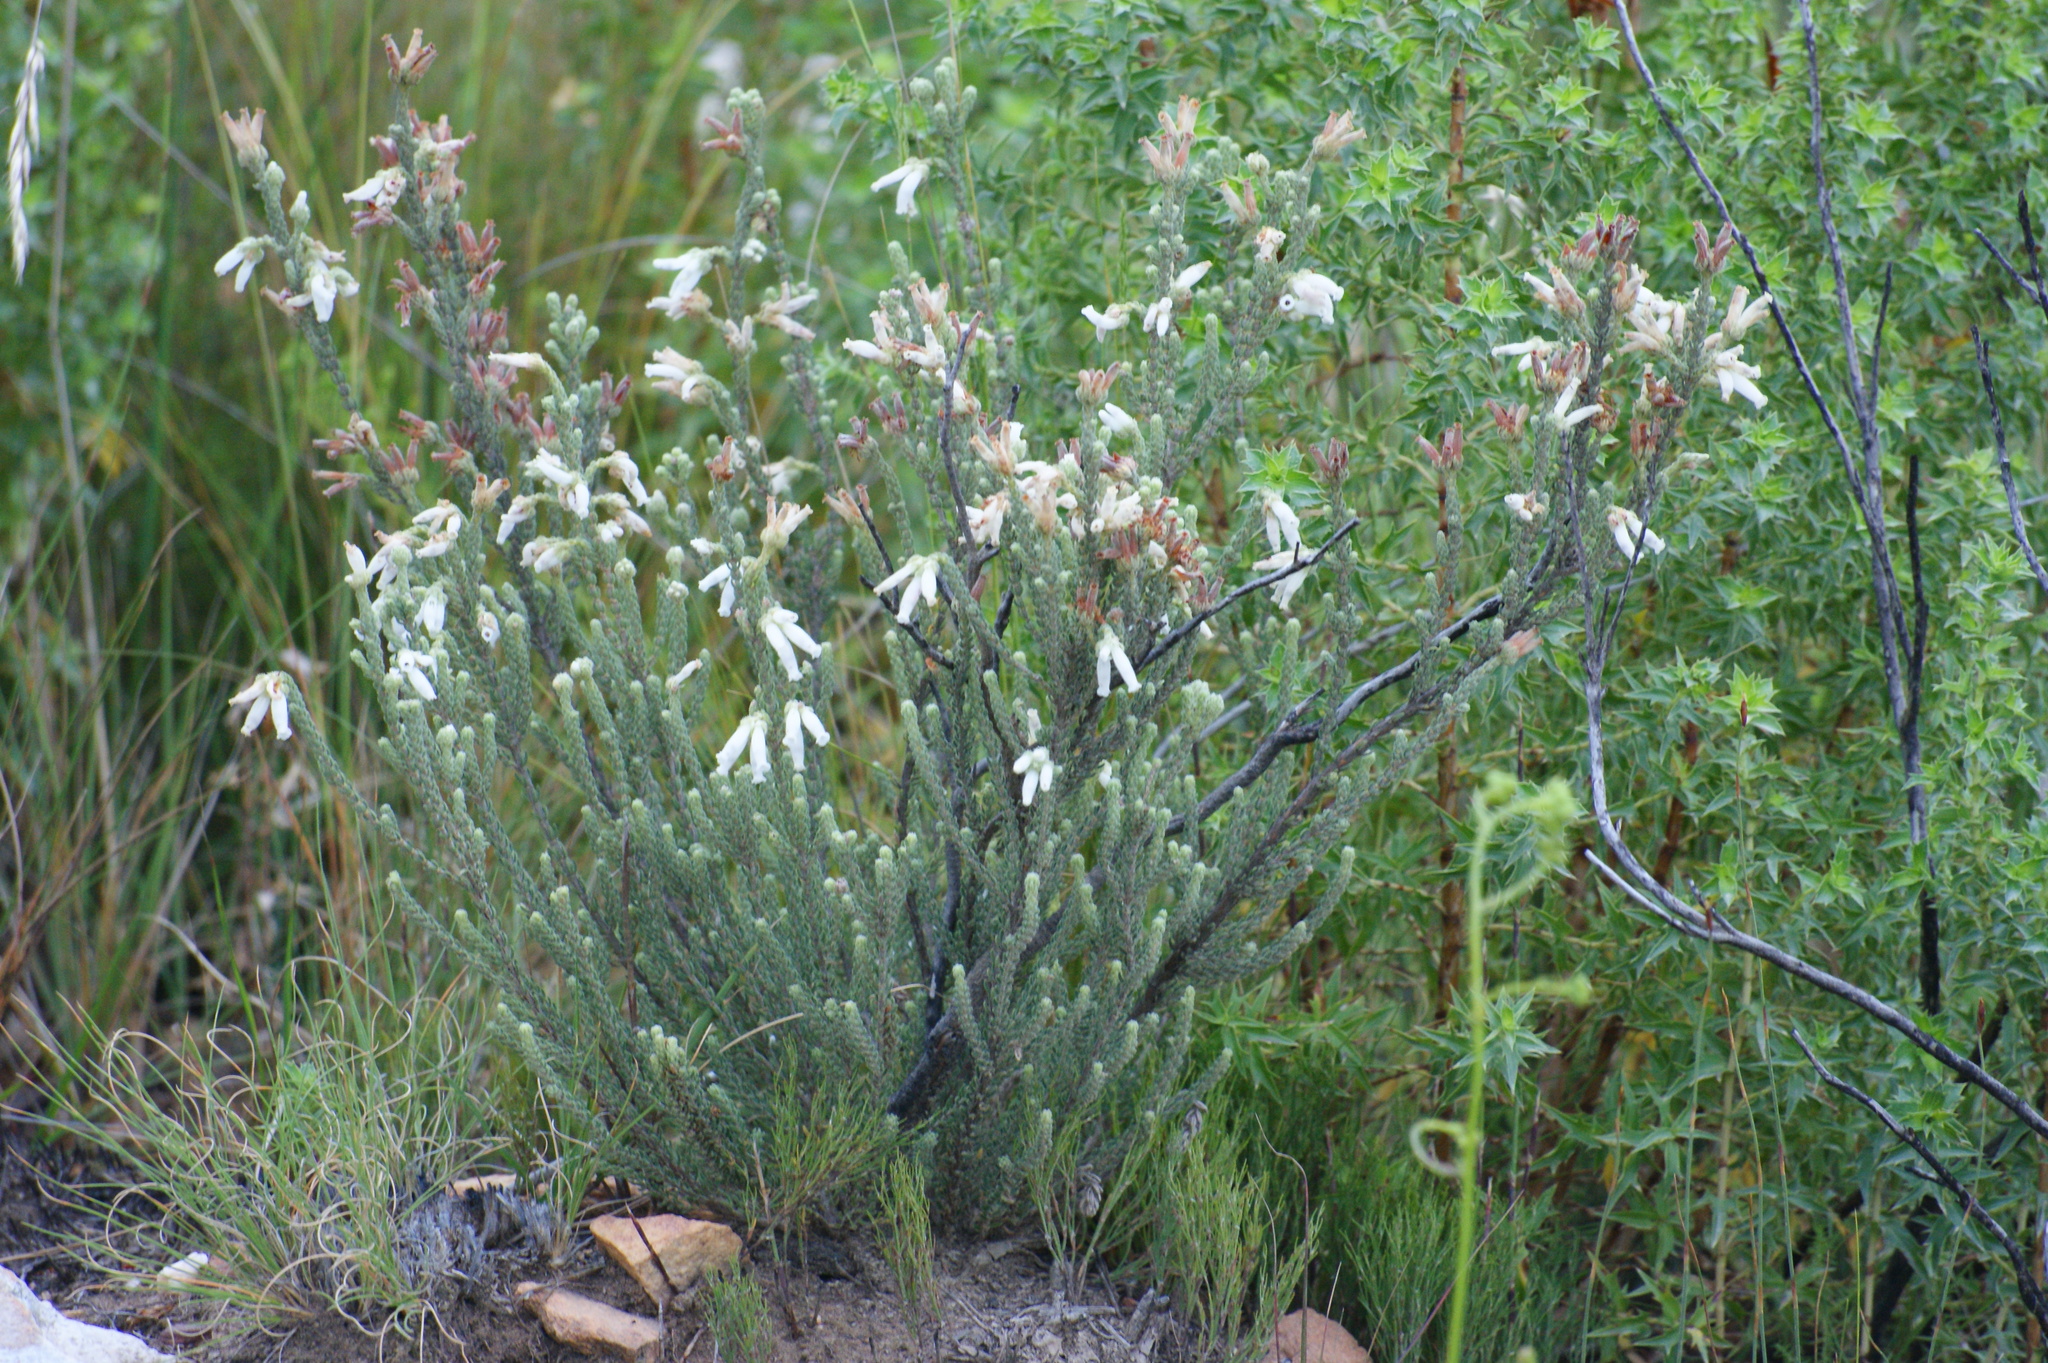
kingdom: Plantae
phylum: Tracheophyta
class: Magnoliopsida
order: Ericales
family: Ericaceae
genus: Erica
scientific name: Erica strigilifolia
